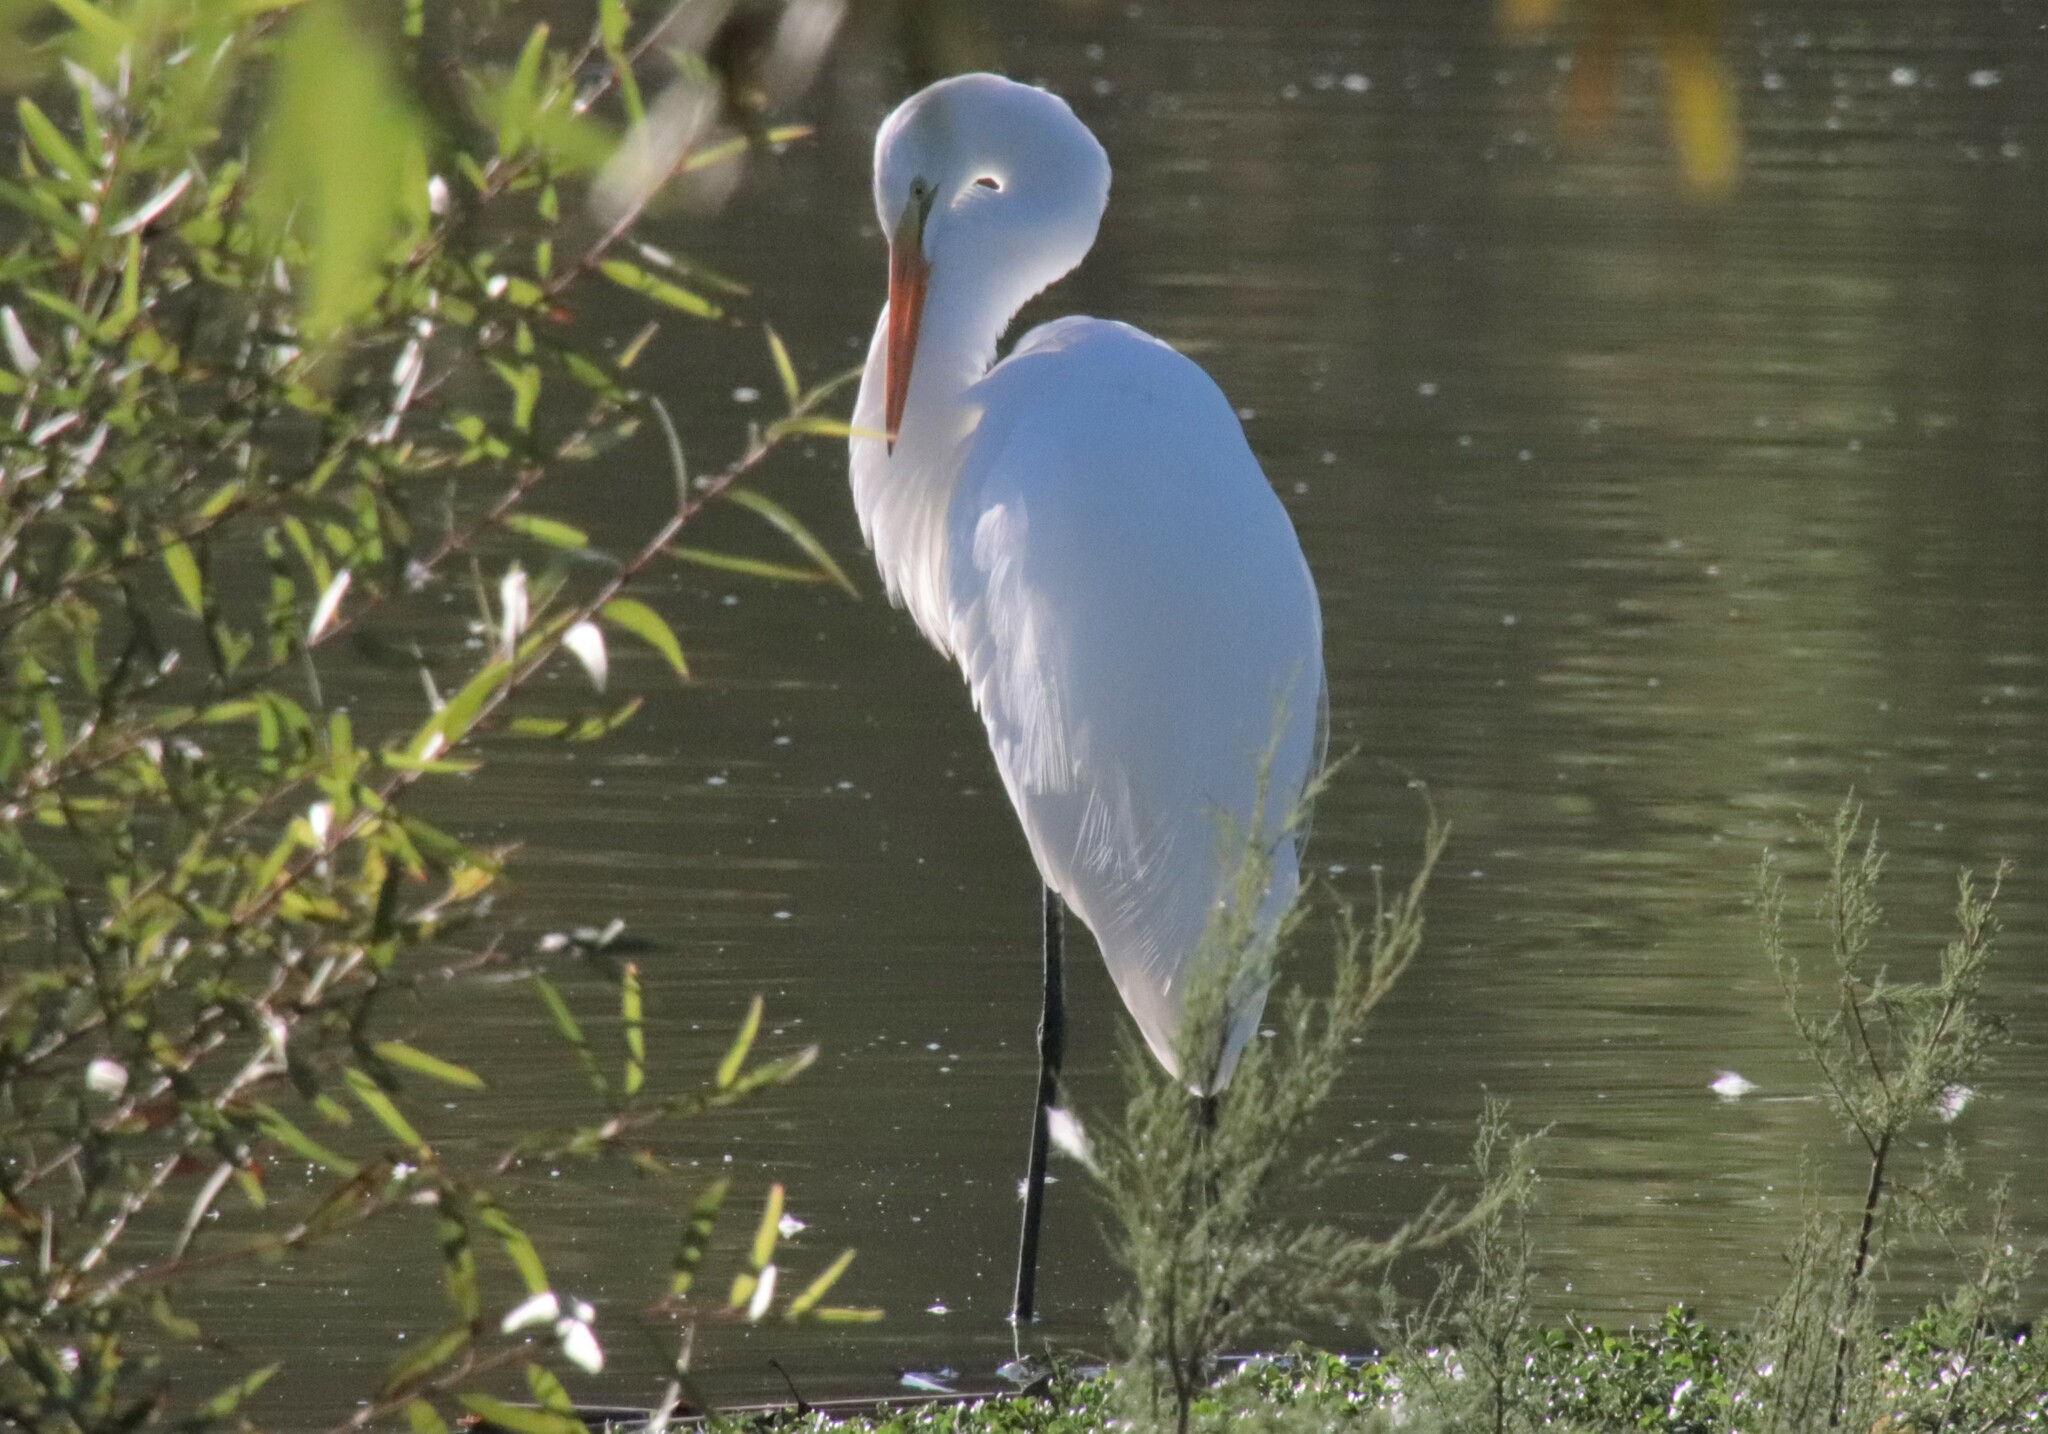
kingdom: Animalia
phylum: Chordata
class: Aves
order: Pelecaniformes
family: Ardeidae
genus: Ardea
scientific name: Ardea alba
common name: Great egret
